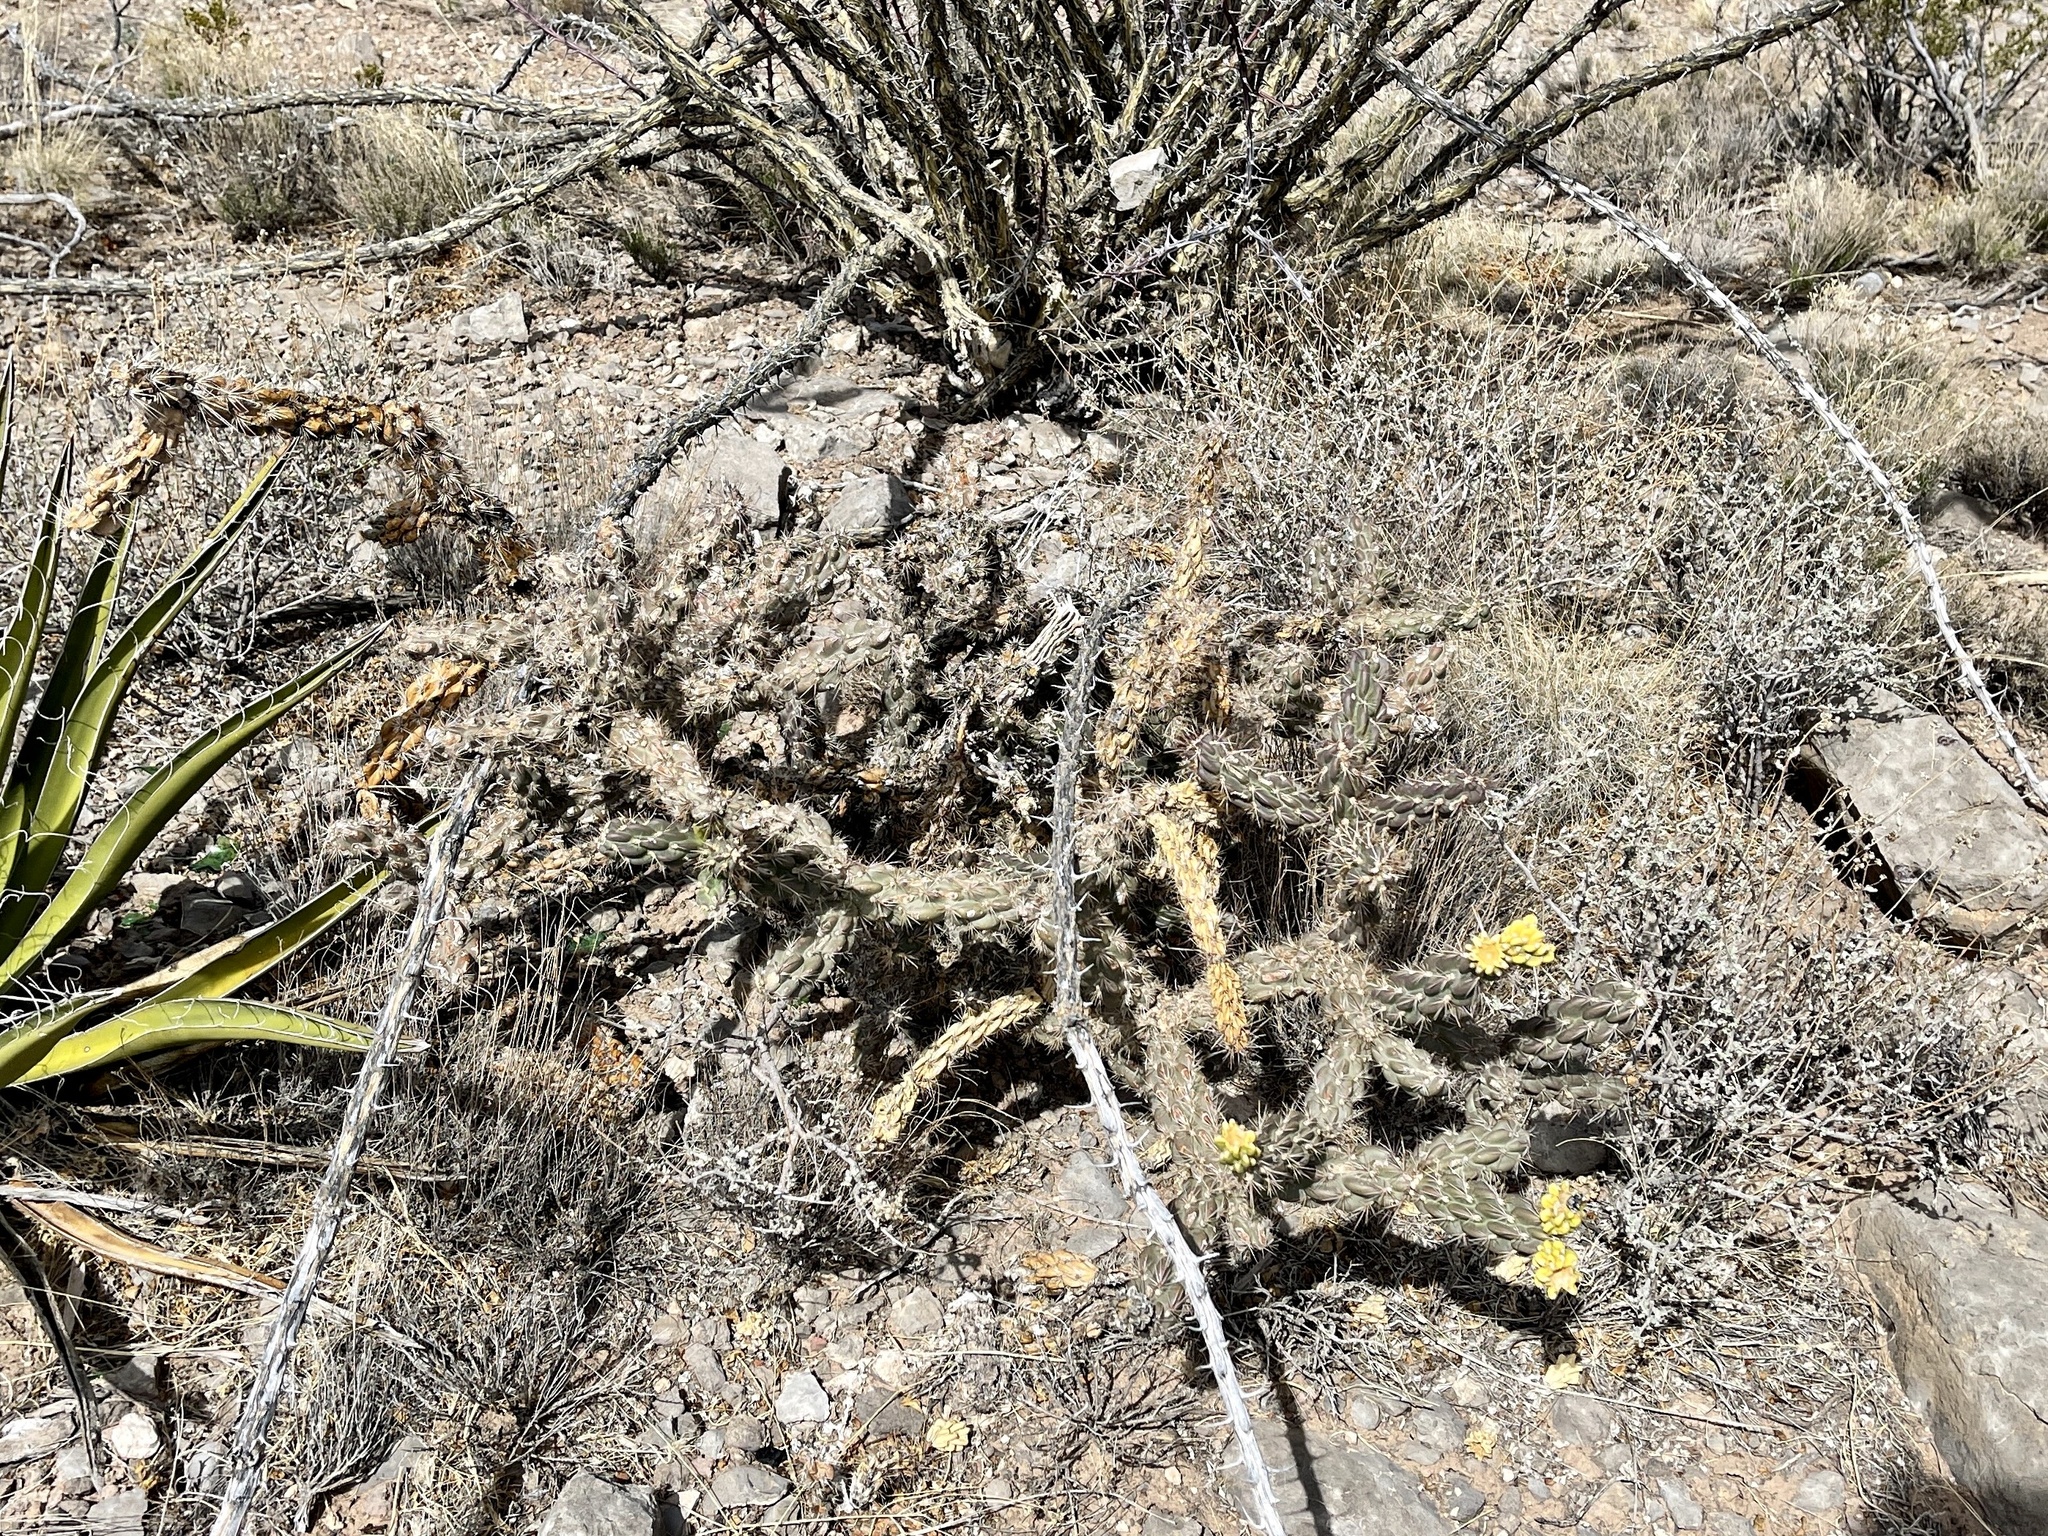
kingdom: Plantae
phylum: Tracheophyta
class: Magnoliopsida
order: Caryophyllales
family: Cactaceae
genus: Cylindropuntia
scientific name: Cylindropuntia imbricata
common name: Candelabrum cactus
